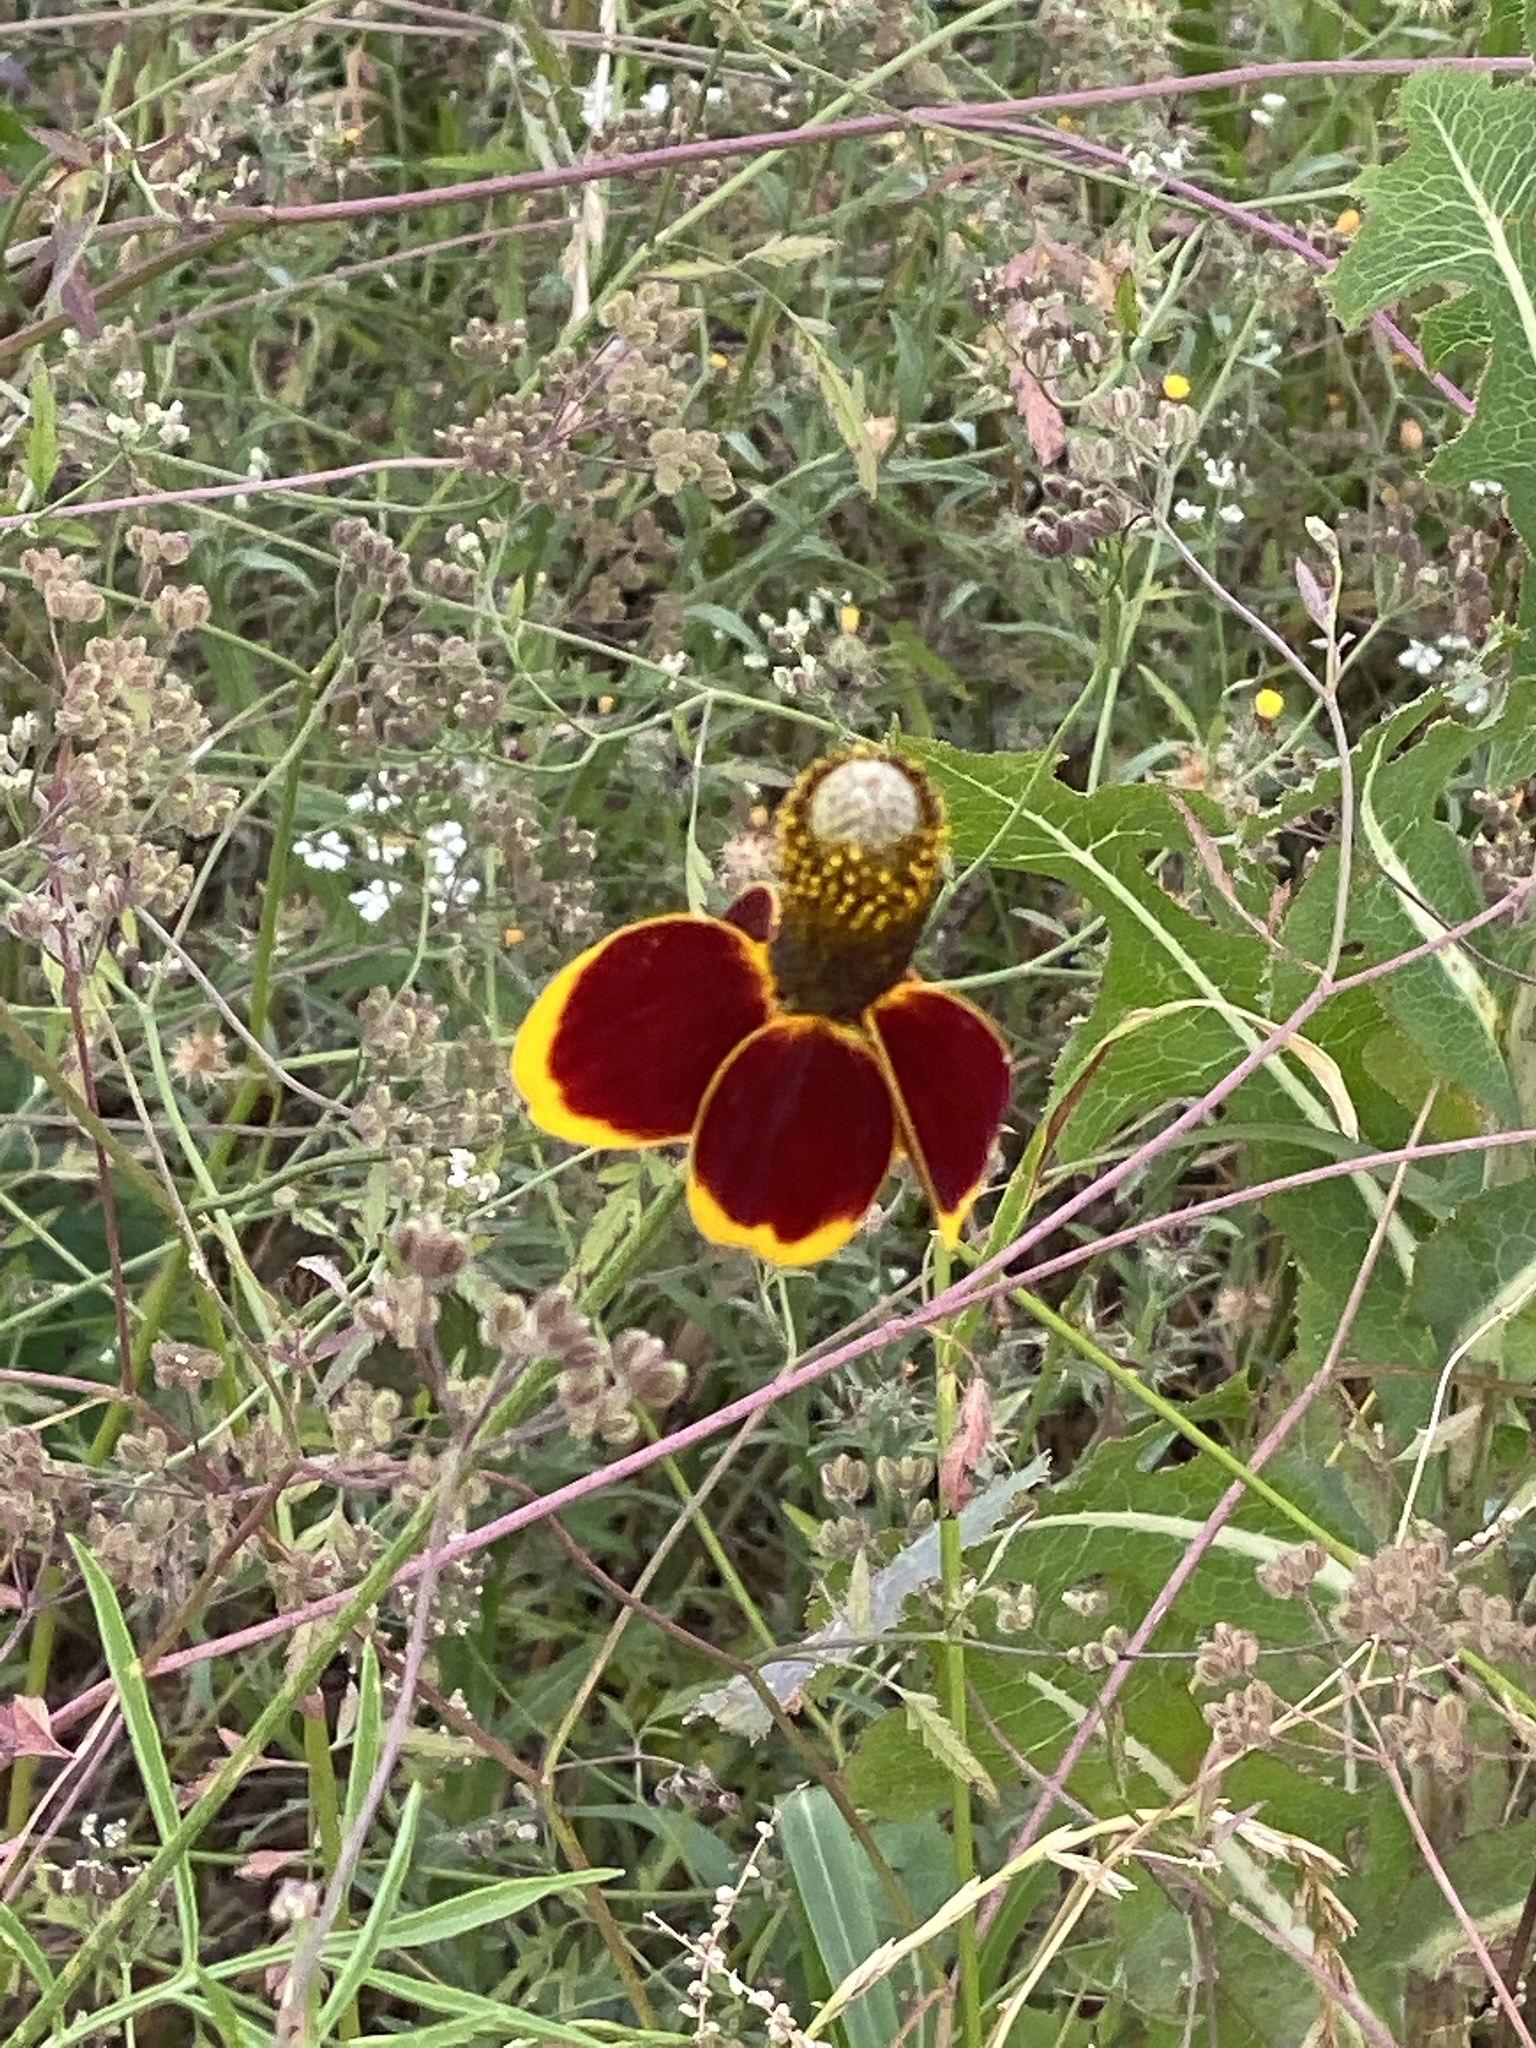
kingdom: Plantae
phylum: Tracheophyta
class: Magnoliopsida
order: Asterales
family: Asteraceae
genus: Ratibida
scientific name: Ratibida columnifera
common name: Prairie coneflower
